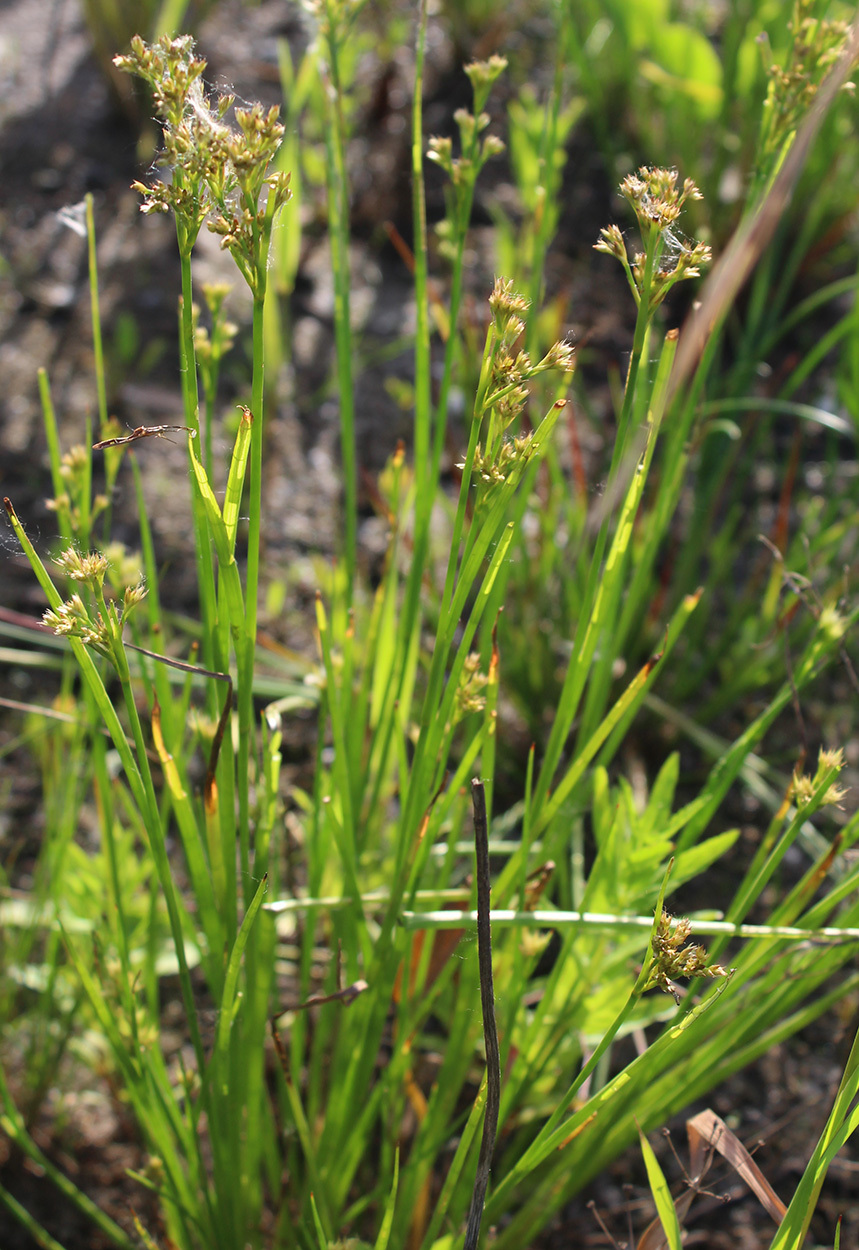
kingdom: Plantae
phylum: Tracheophyta
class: Liliopsida
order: Poales
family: Juncaceae
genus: Juncus
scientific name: Juncus articulatus
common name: Jointed rush
